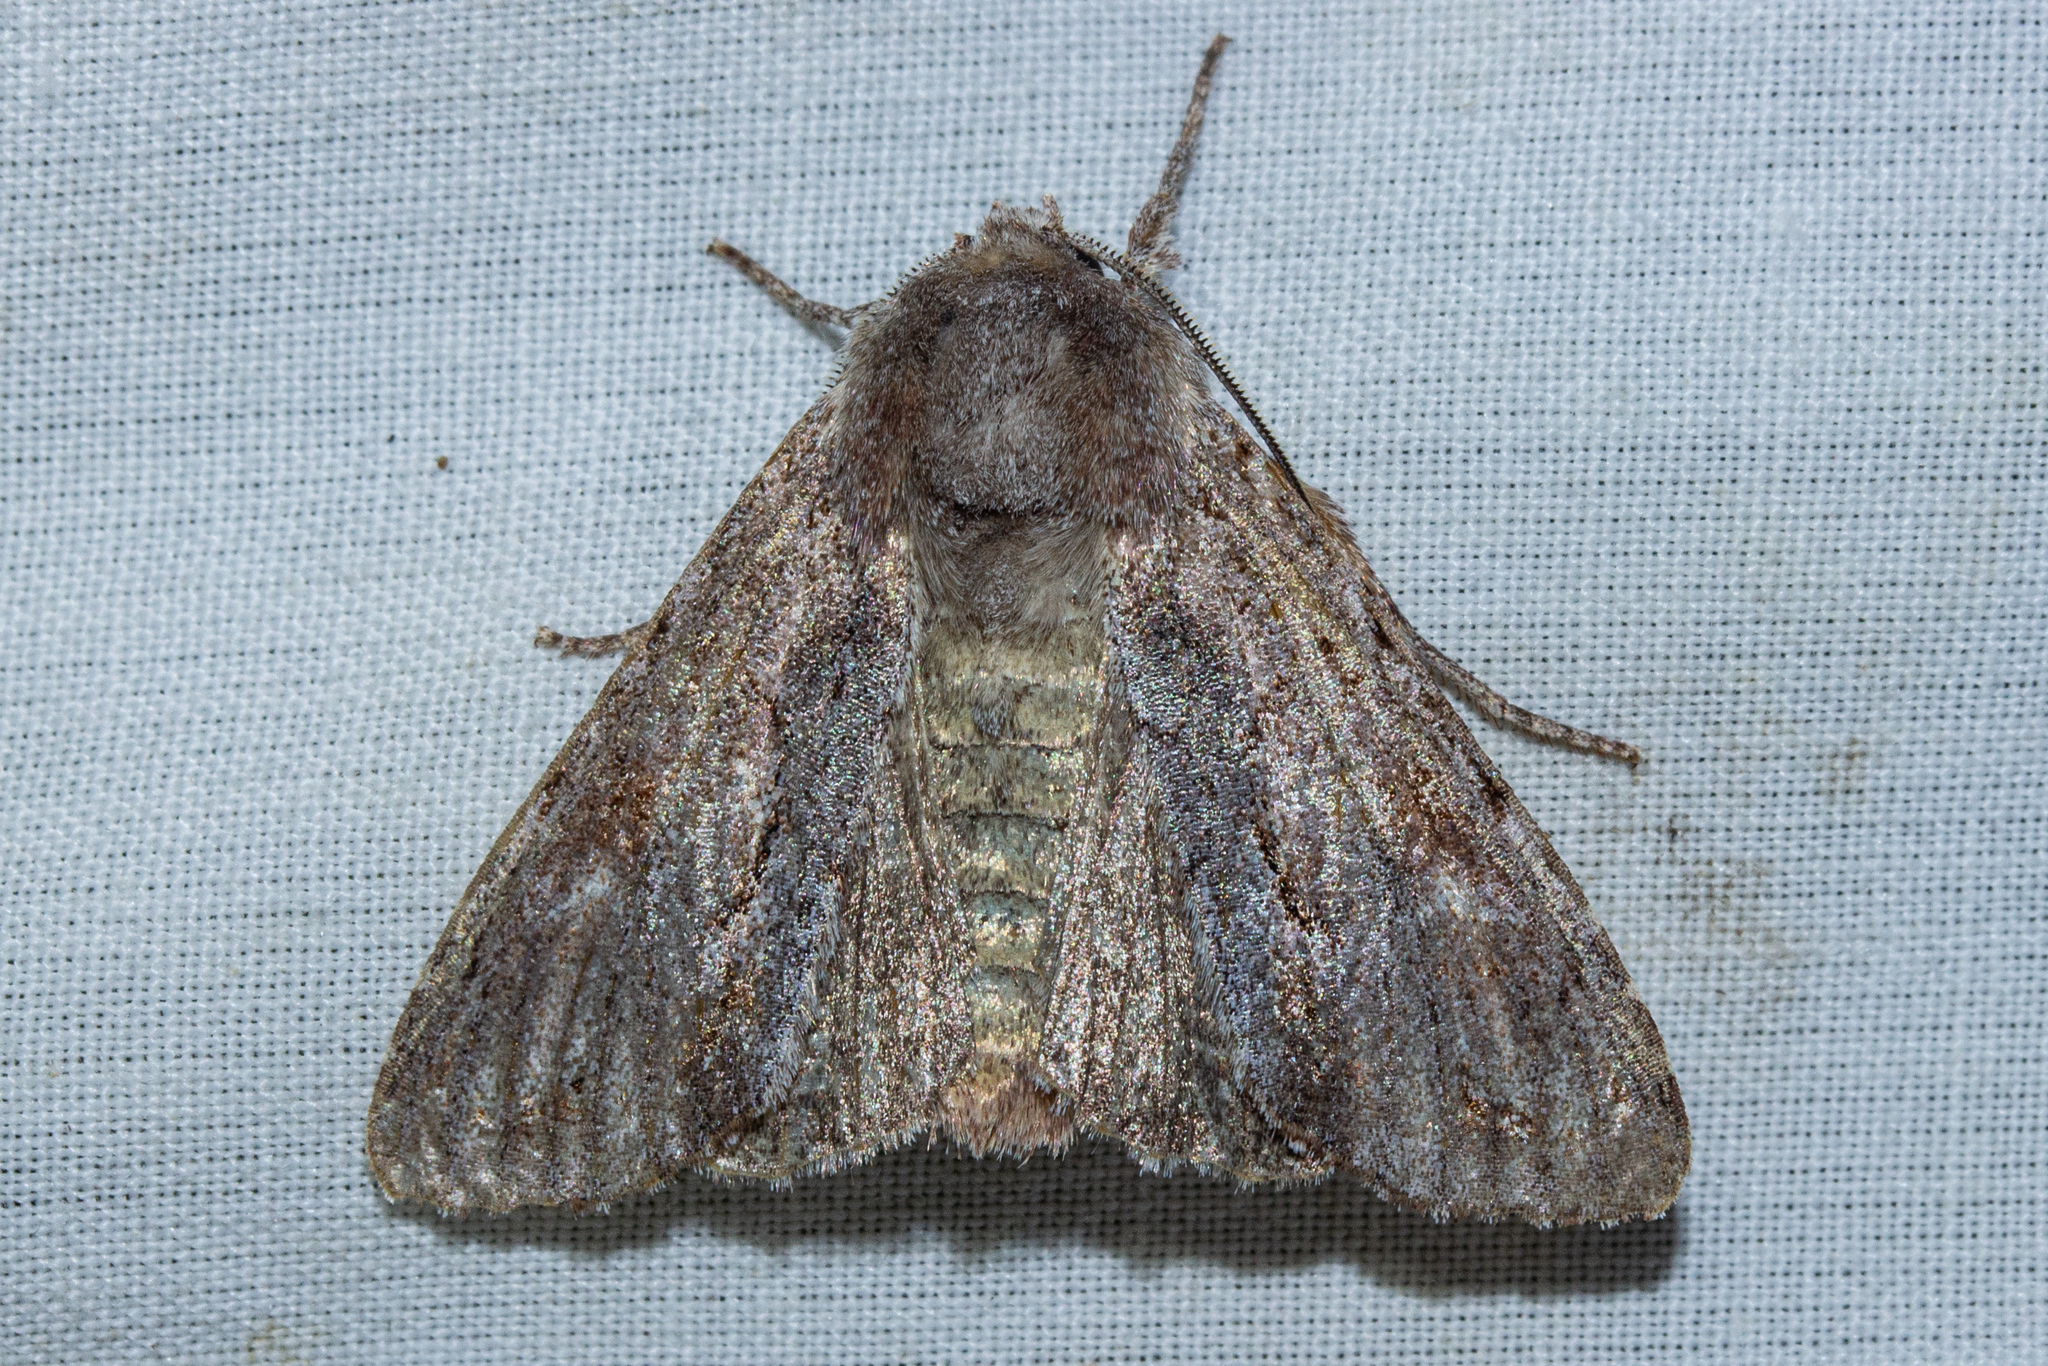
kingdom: Animalia
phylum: Arthropoda
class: Insecta
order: Lepidoptera
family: Noctuidae
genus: Ichneutica
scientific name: Ichneutica
